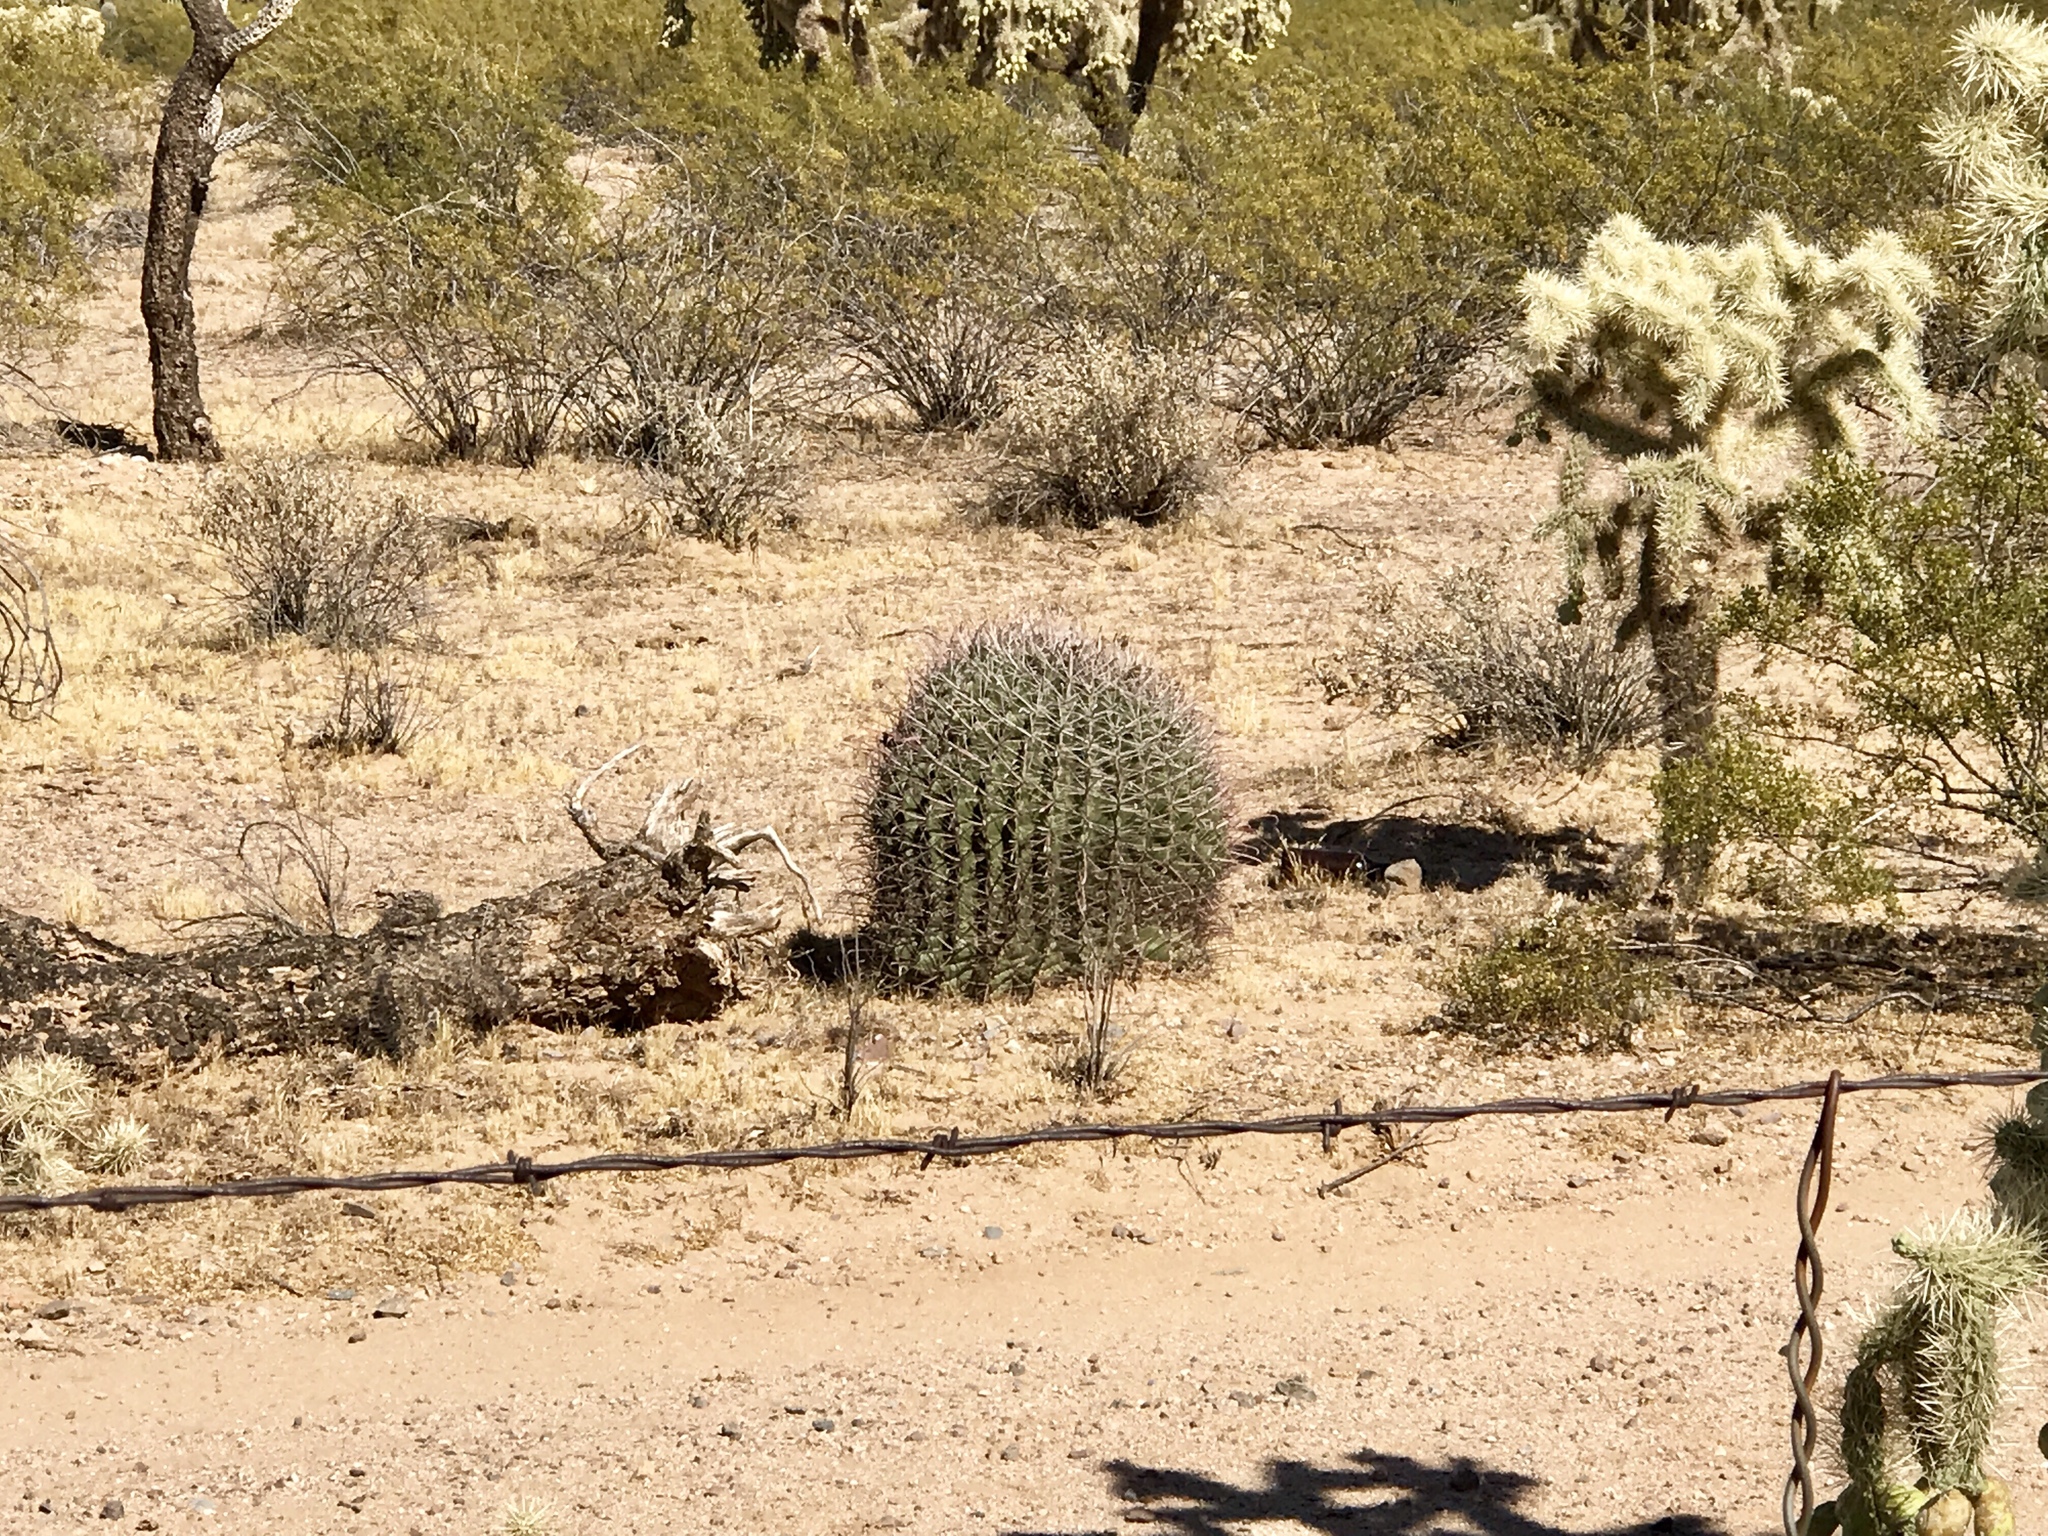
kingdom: Plantae
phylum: Tracheophyta
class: Magnoliopsida
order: Caryophyllales
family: Cactaceae
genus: Ferocactus
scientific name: Ferocactus wislizeni
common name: Candy barrel cactus
